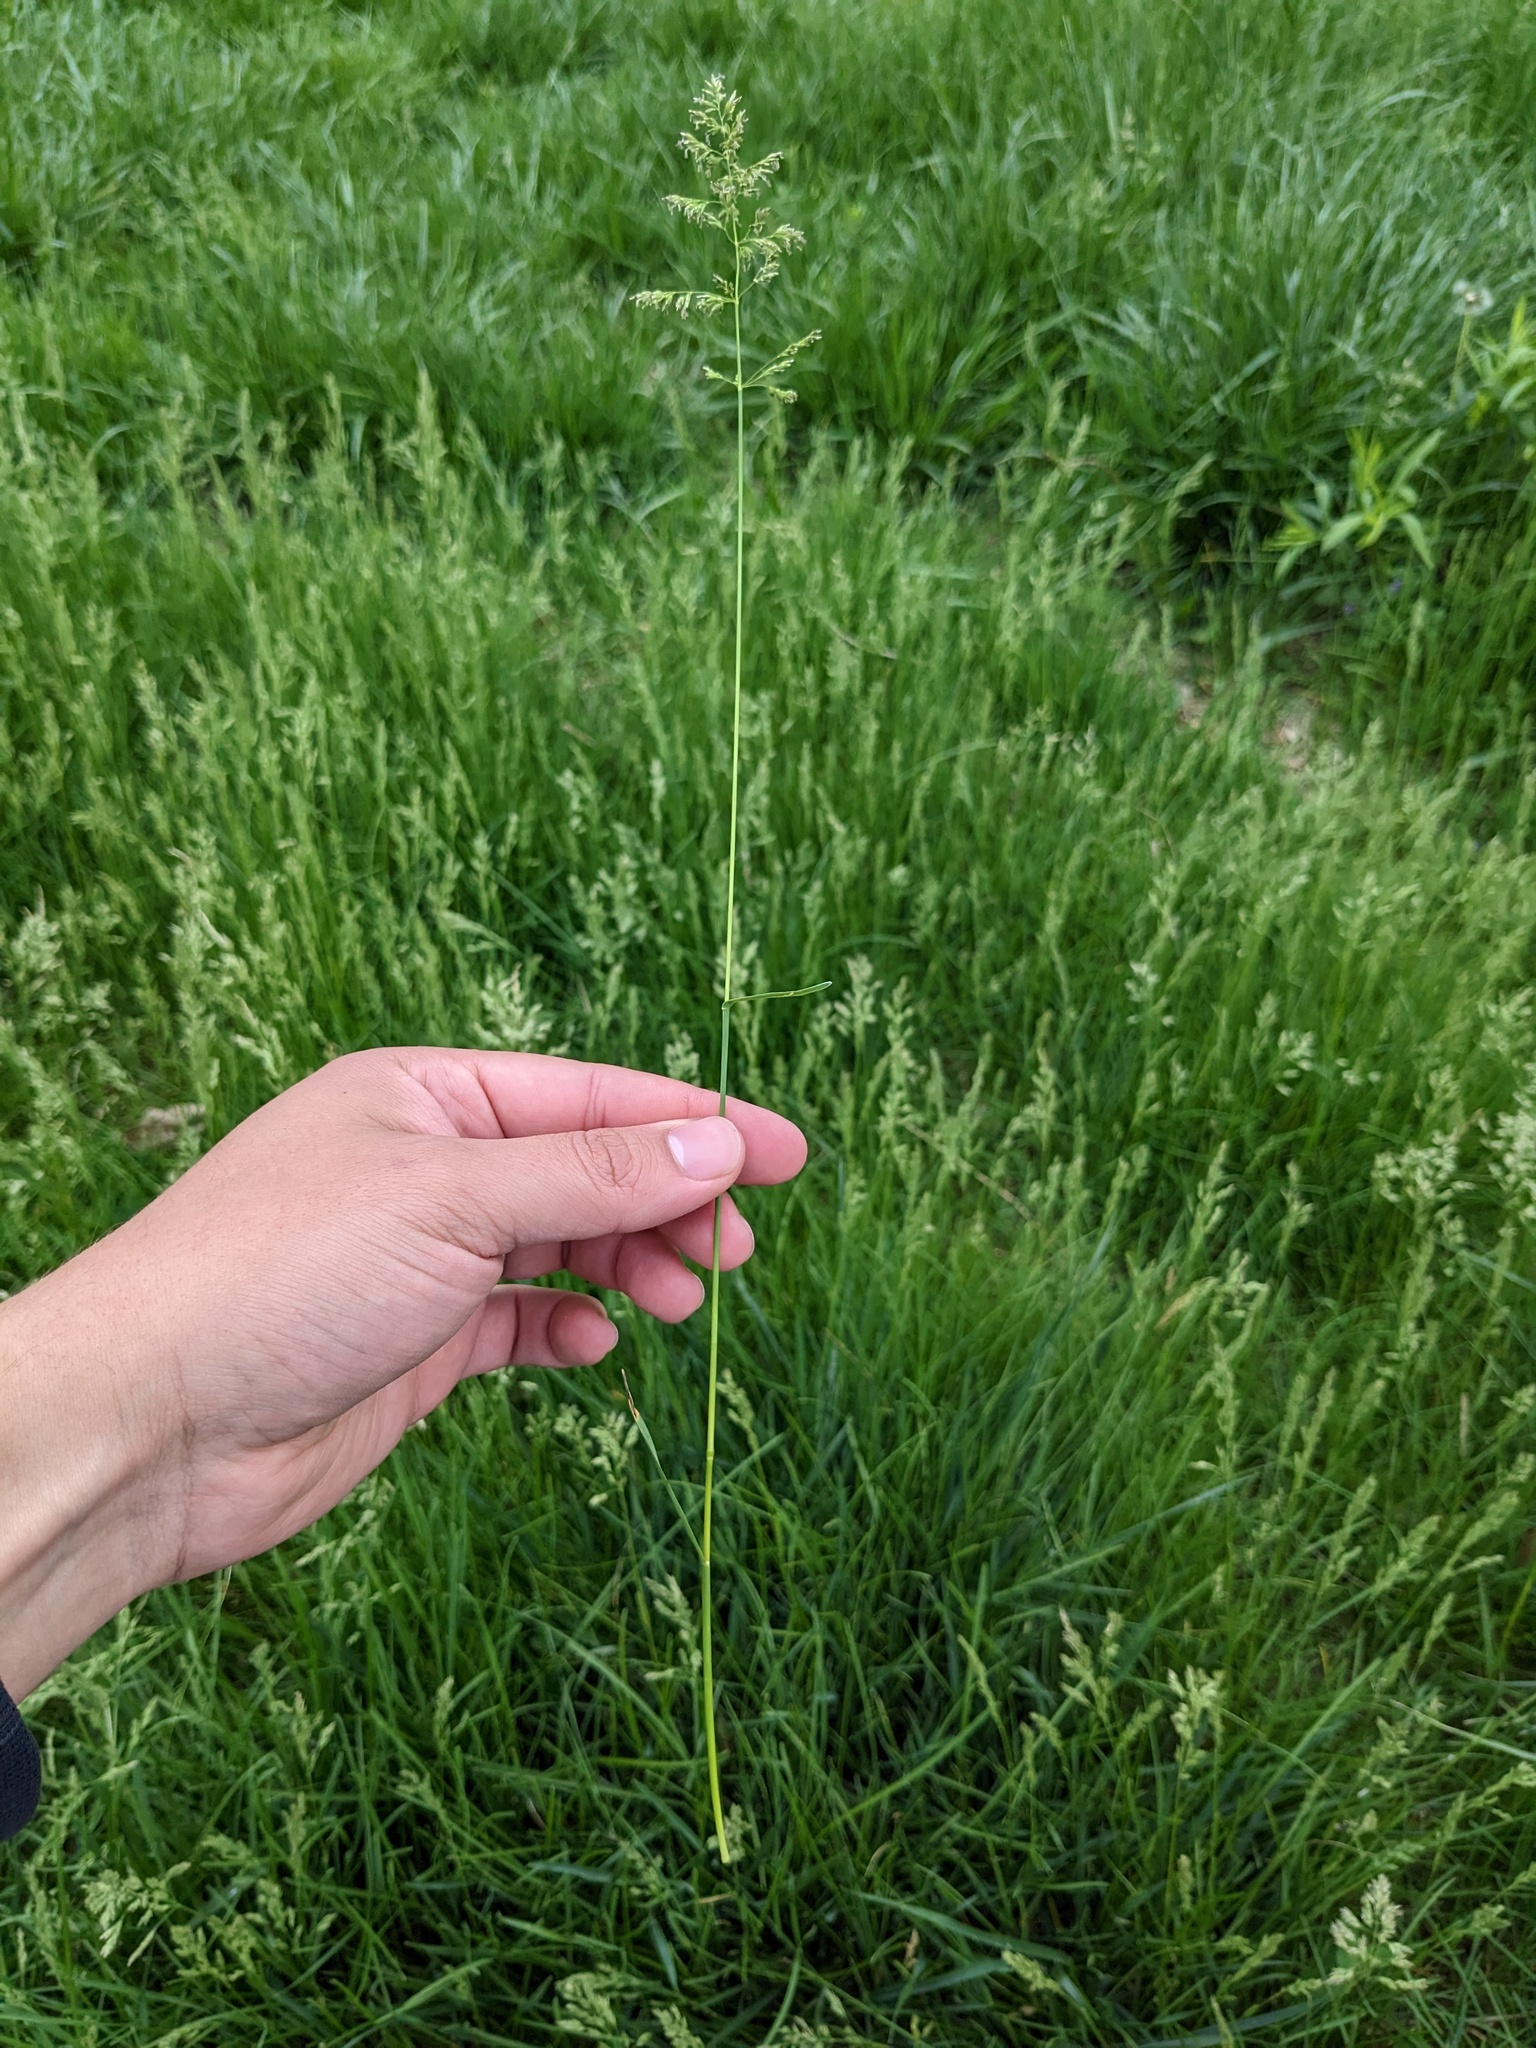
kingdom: Plantae
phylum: Tracheophyta
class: Liliopsida
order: Poales
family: Poaceae
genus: Poa
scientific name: Poa pratensis
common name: Kentucky bluegrass
